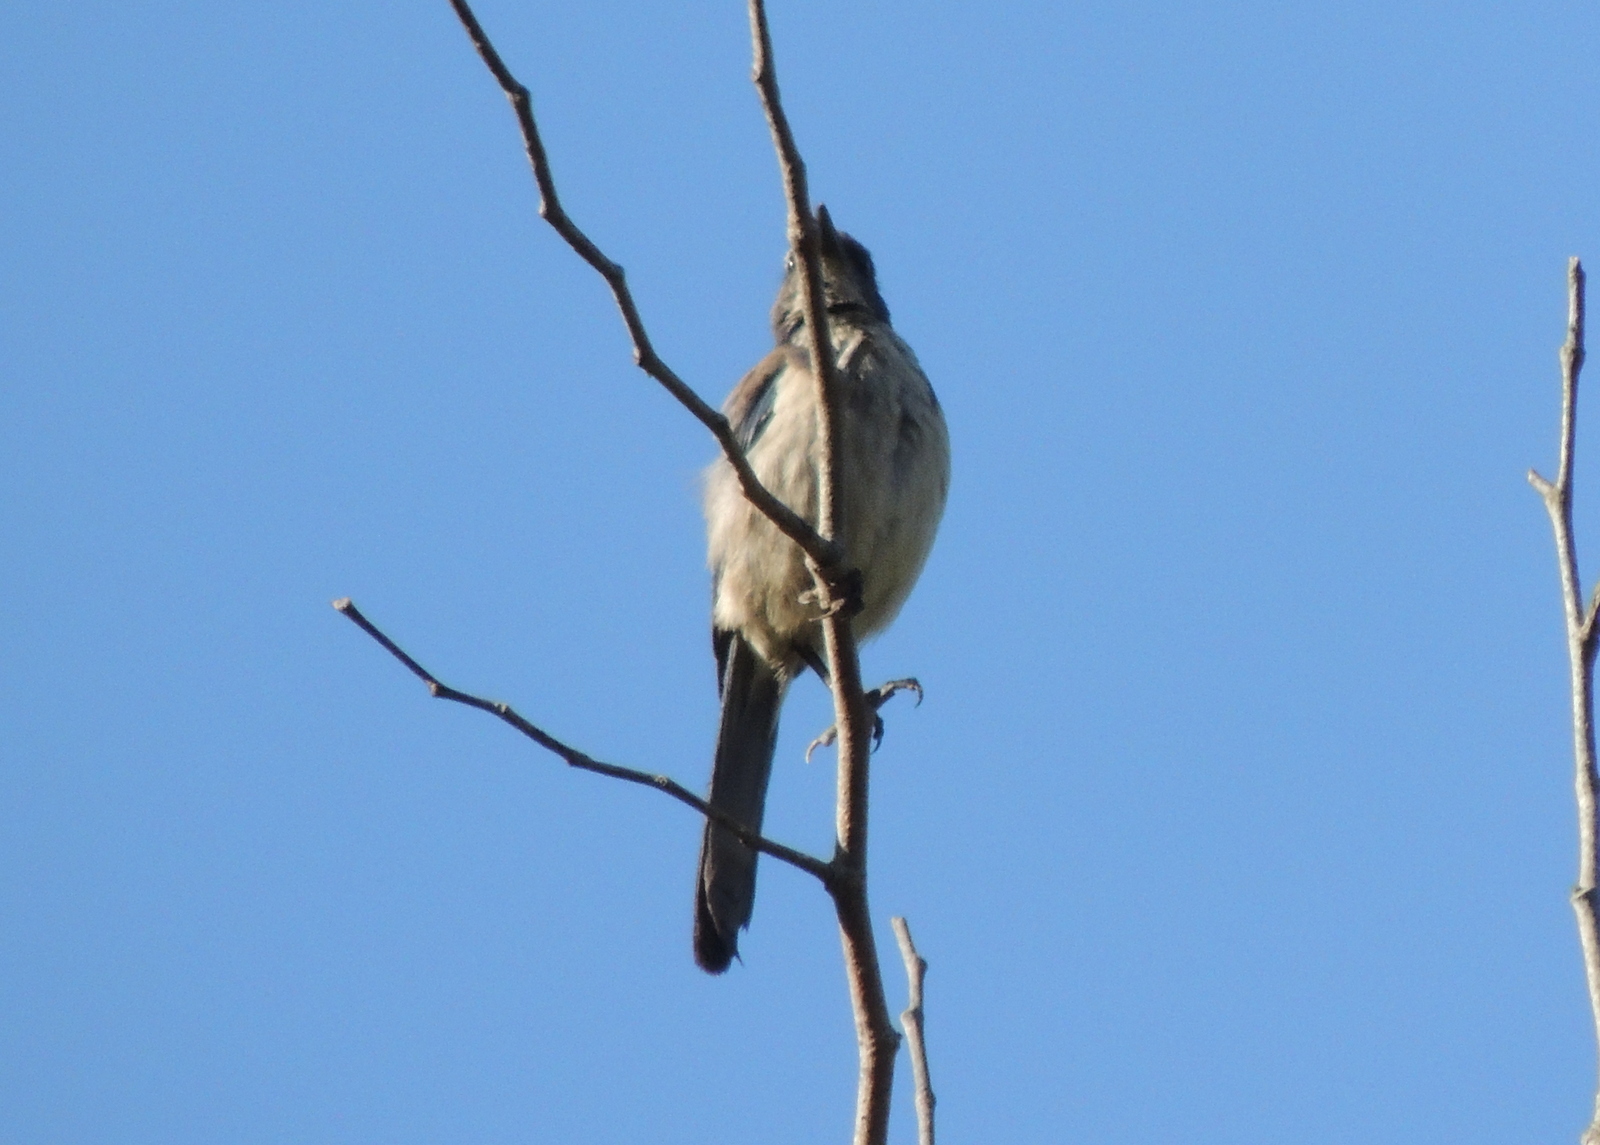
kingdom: Animalia
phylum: Chordata
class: Aves
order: Passeriformes
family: Corvidae
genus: Aphelocoma
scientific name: Aphelocoma californica
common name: California scrub-jay
